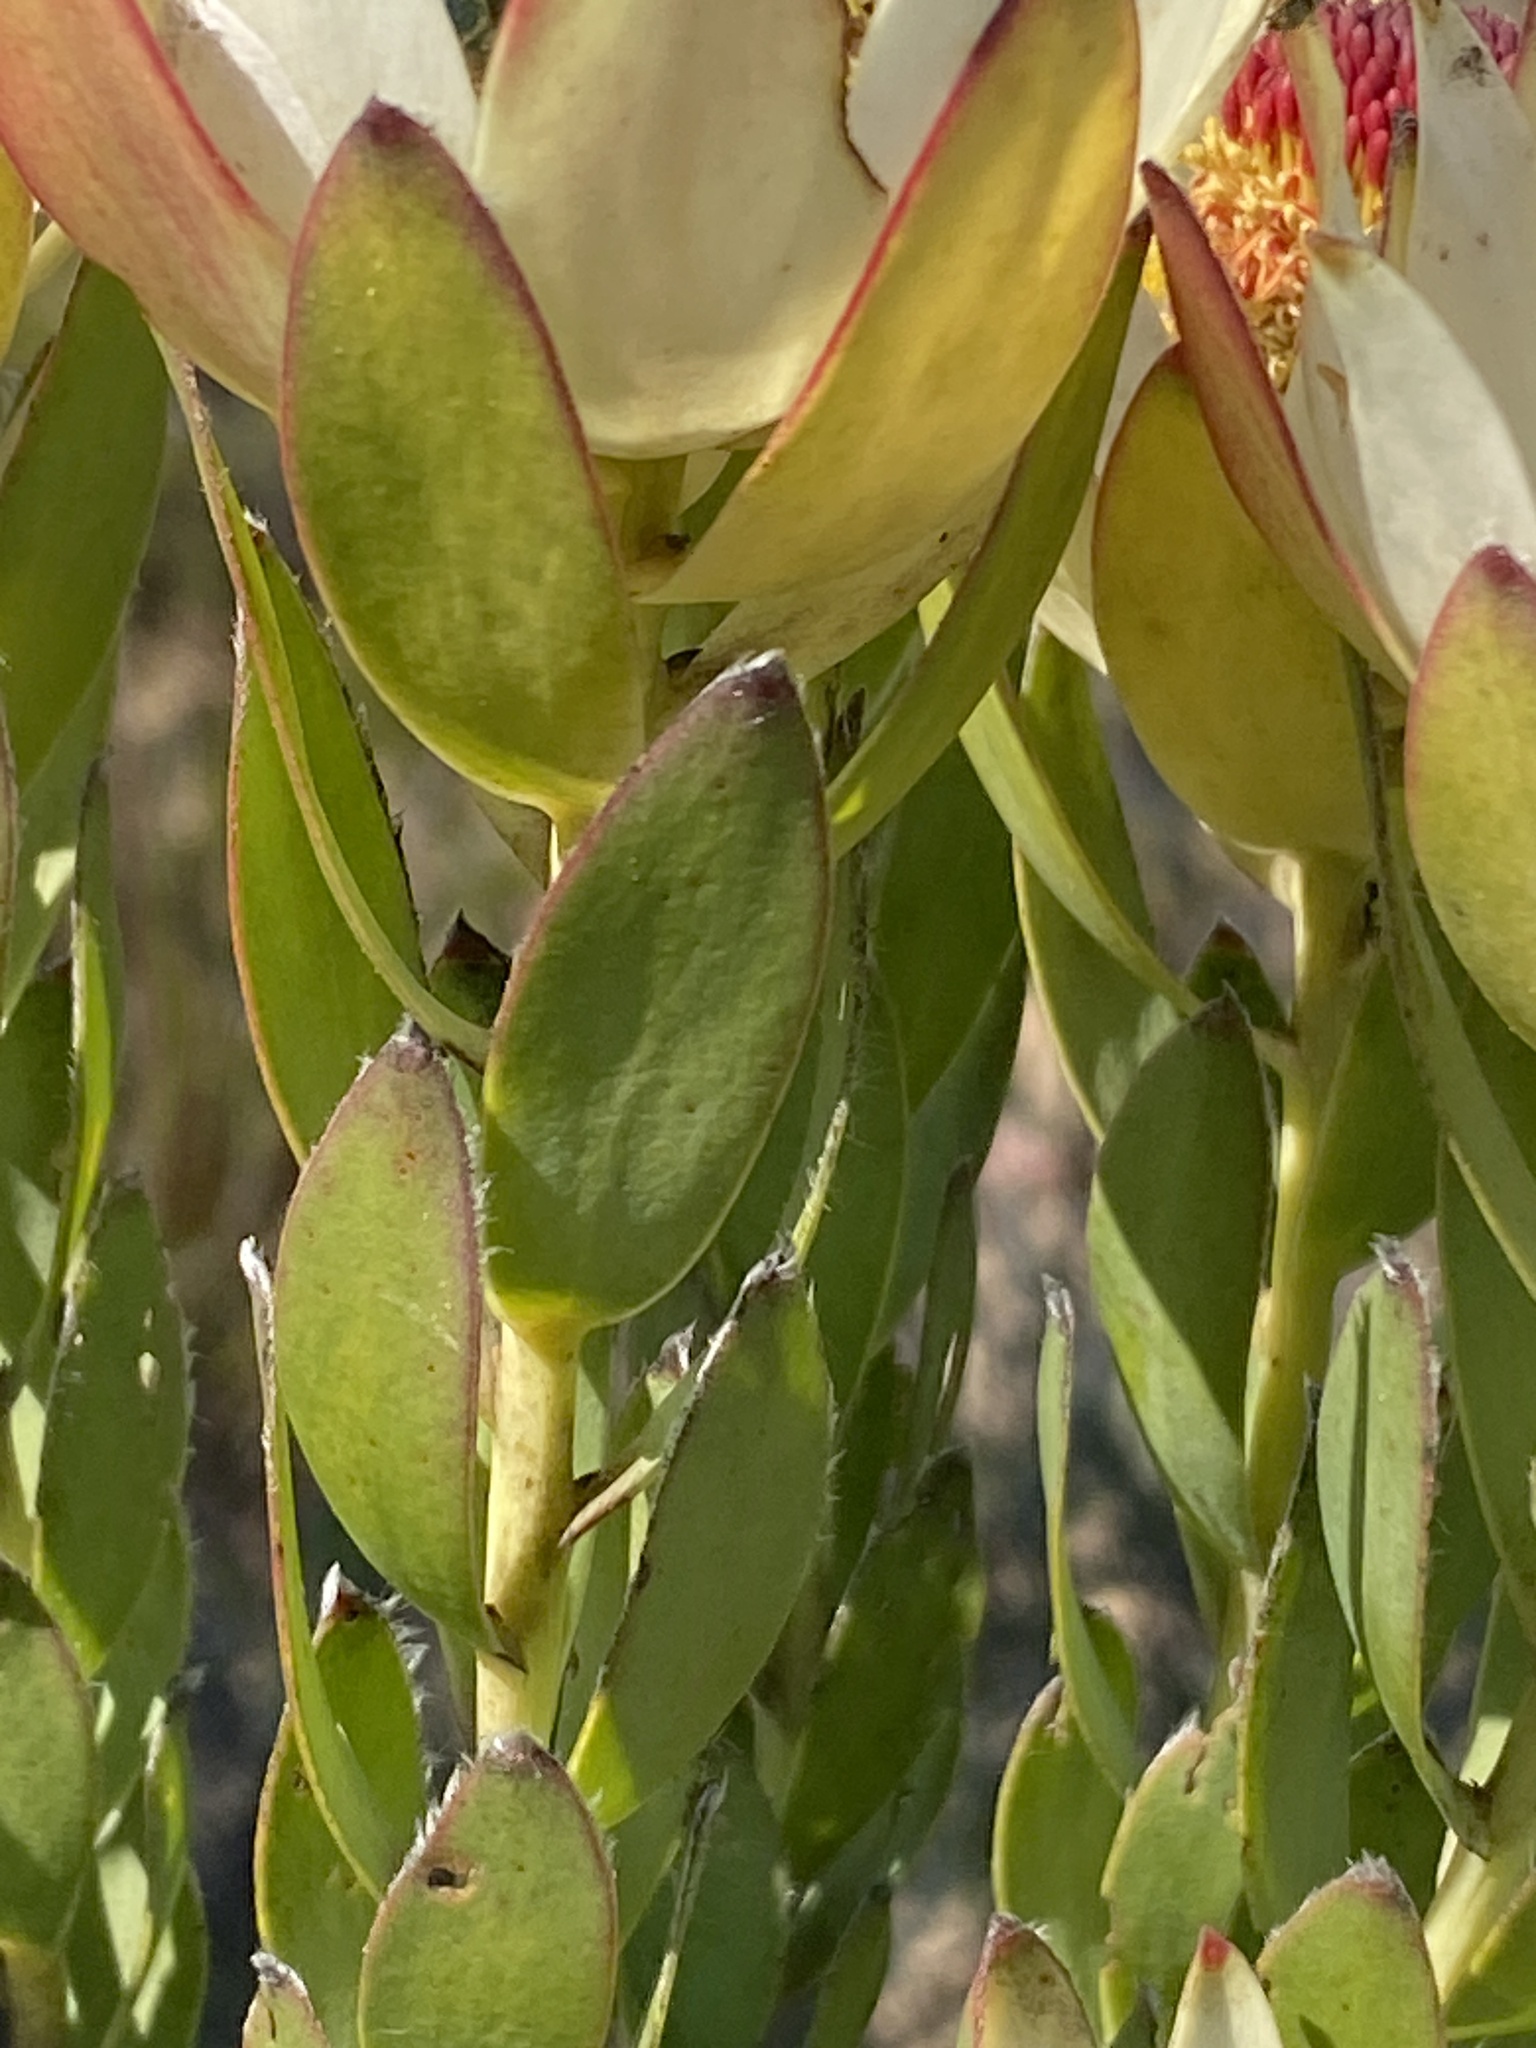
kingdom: Plantae
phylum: Tracheophyta
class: Magnoliopsida
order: Proteales
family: Proteaceae
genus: Leucadendron
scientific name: Leucadendron procerum
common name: Ivory conebush
